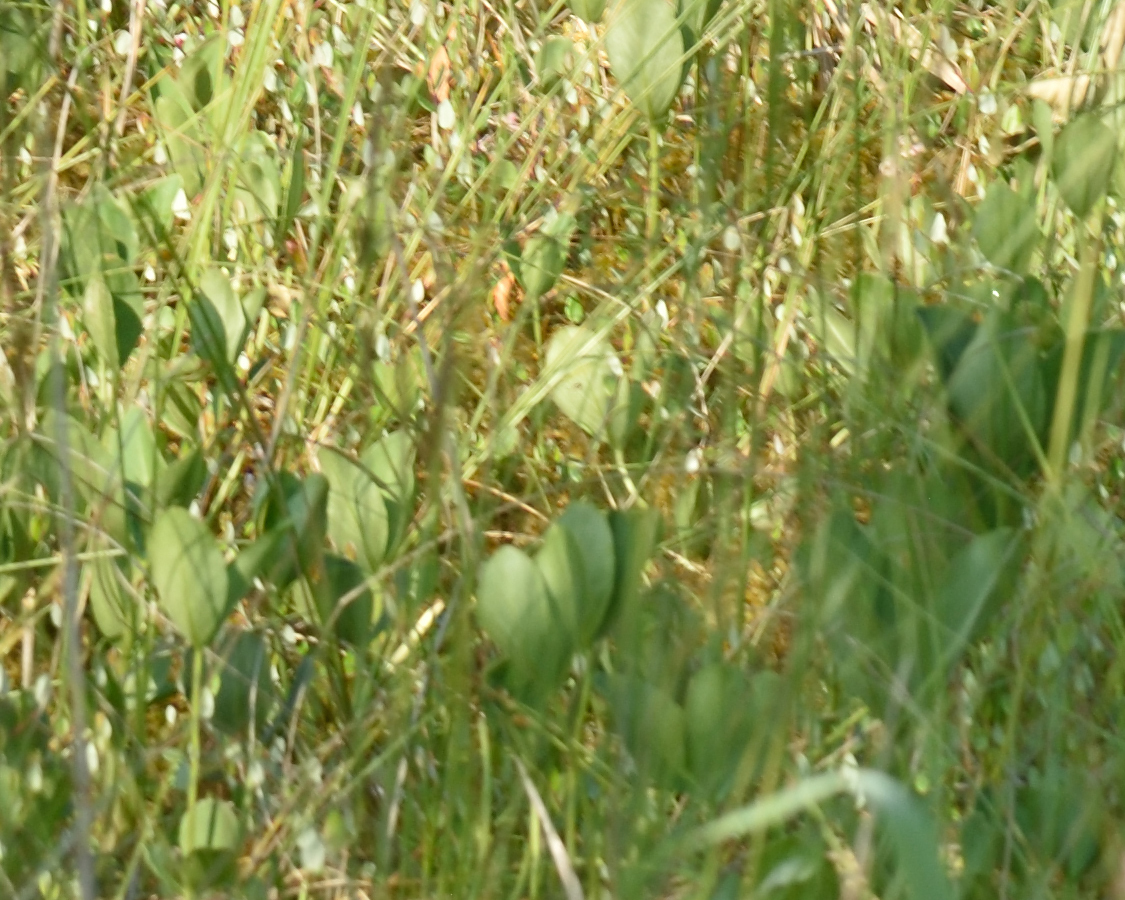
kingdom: Plantae
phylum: Tracheophyta
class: Magnoliopsida
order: Asterales
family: Menyanthaceae
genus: Menyanthes
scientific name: Menyanthes trifoliata
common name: Bogbean
